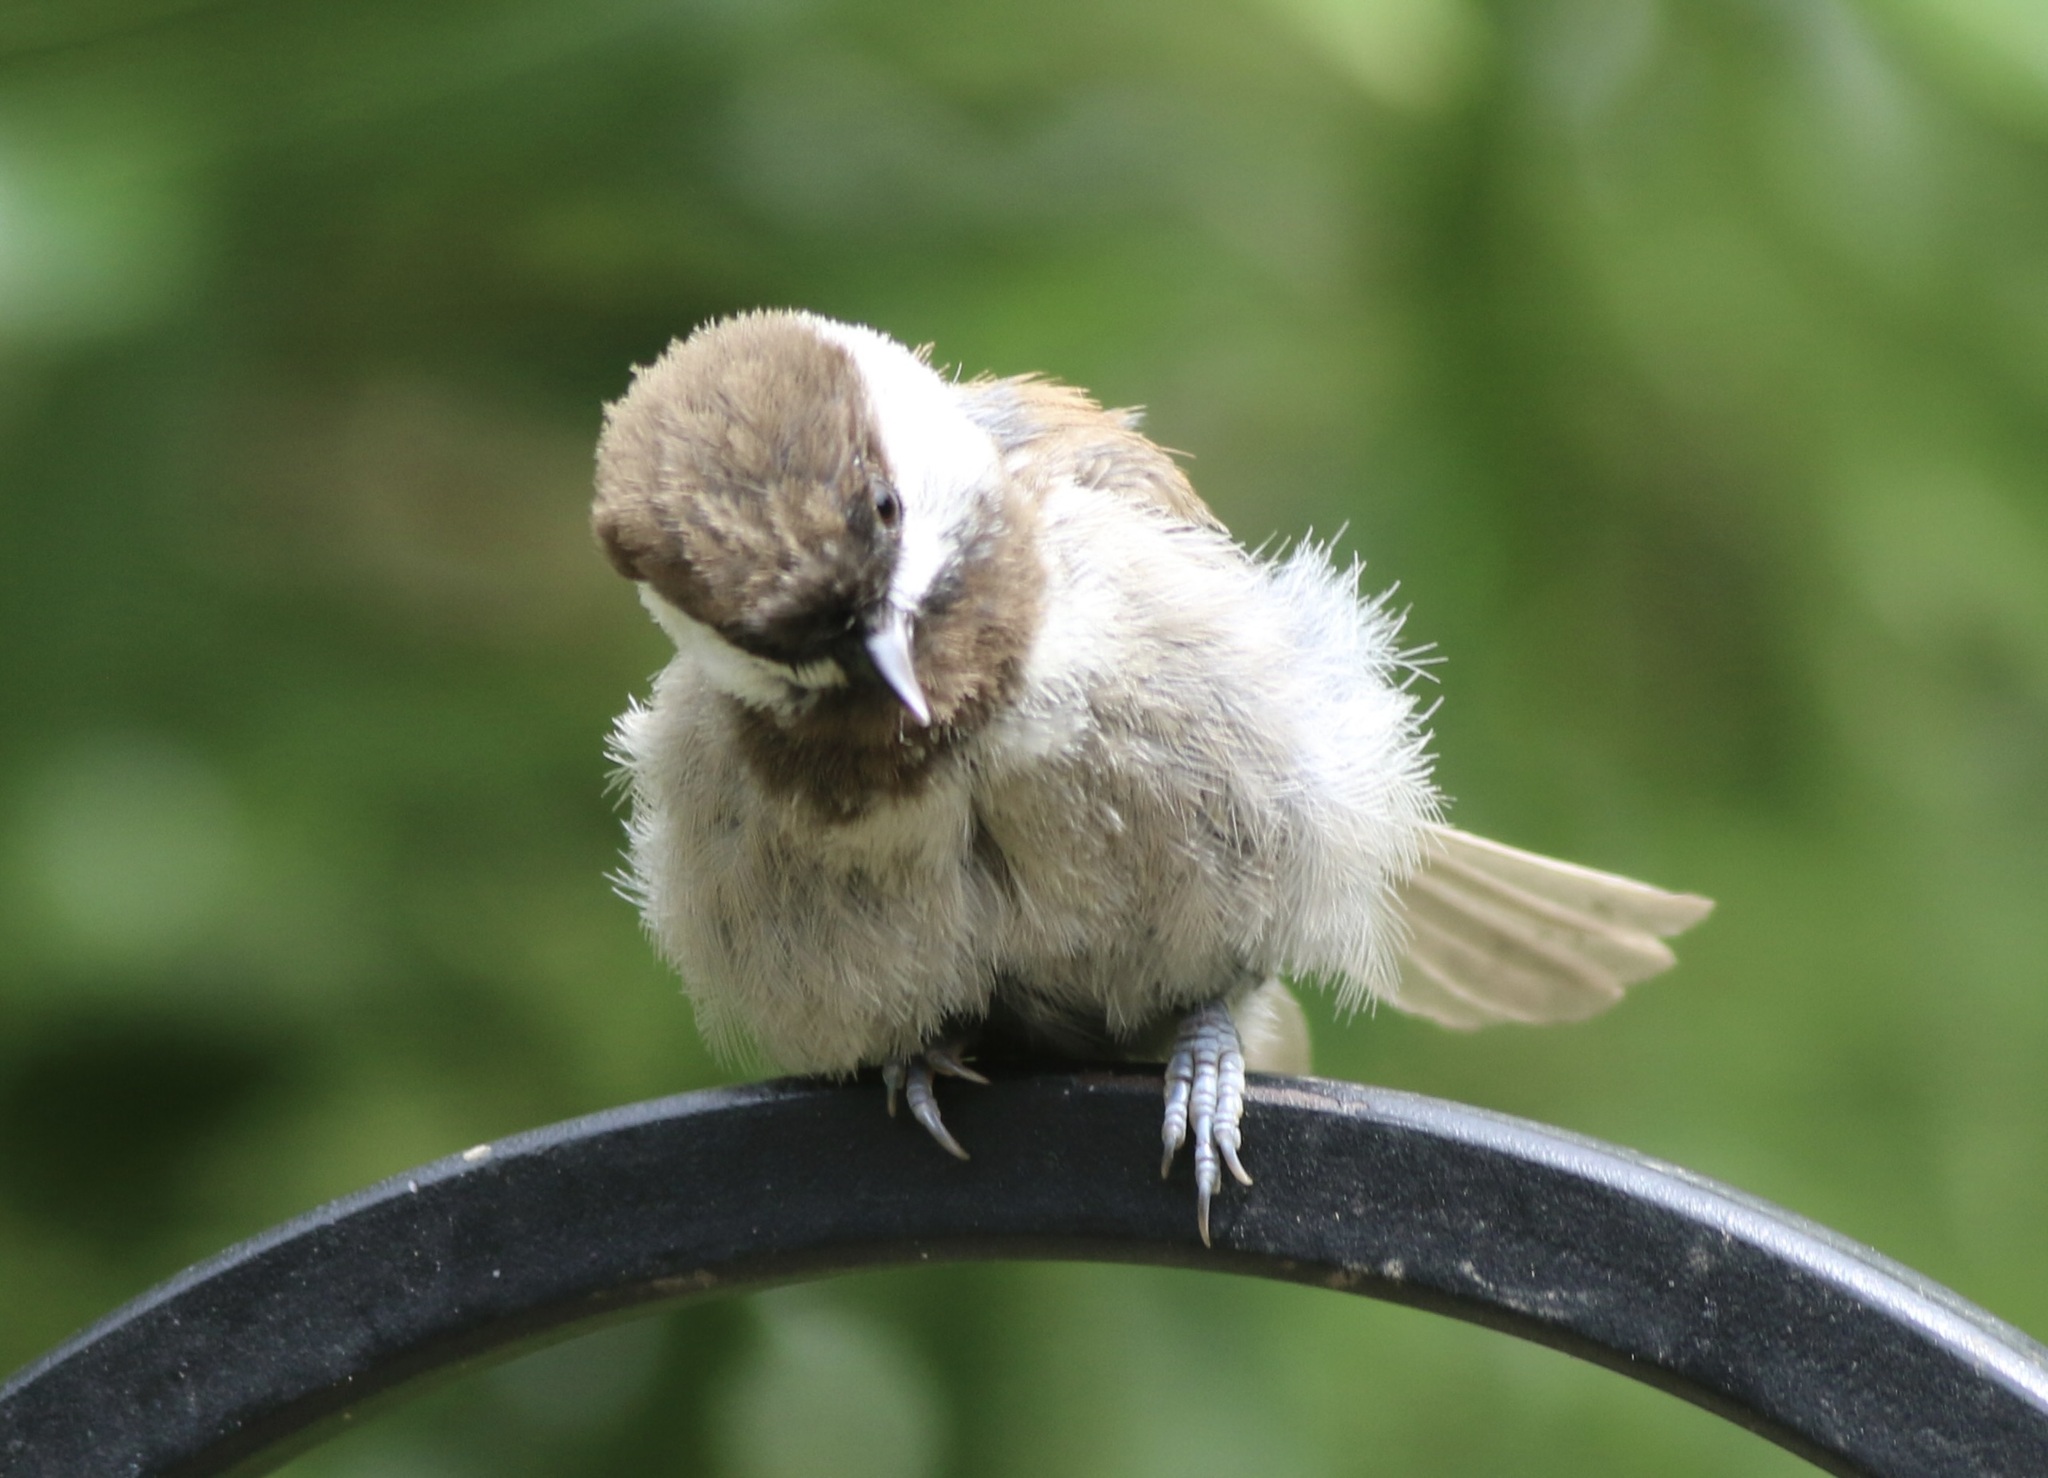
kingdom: Animalia
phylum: Chordata
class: Aves
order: Passeriformes
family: Paridae
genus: Poecile
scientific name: Poecile rufescens
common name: Chestnut-backed chickadee
